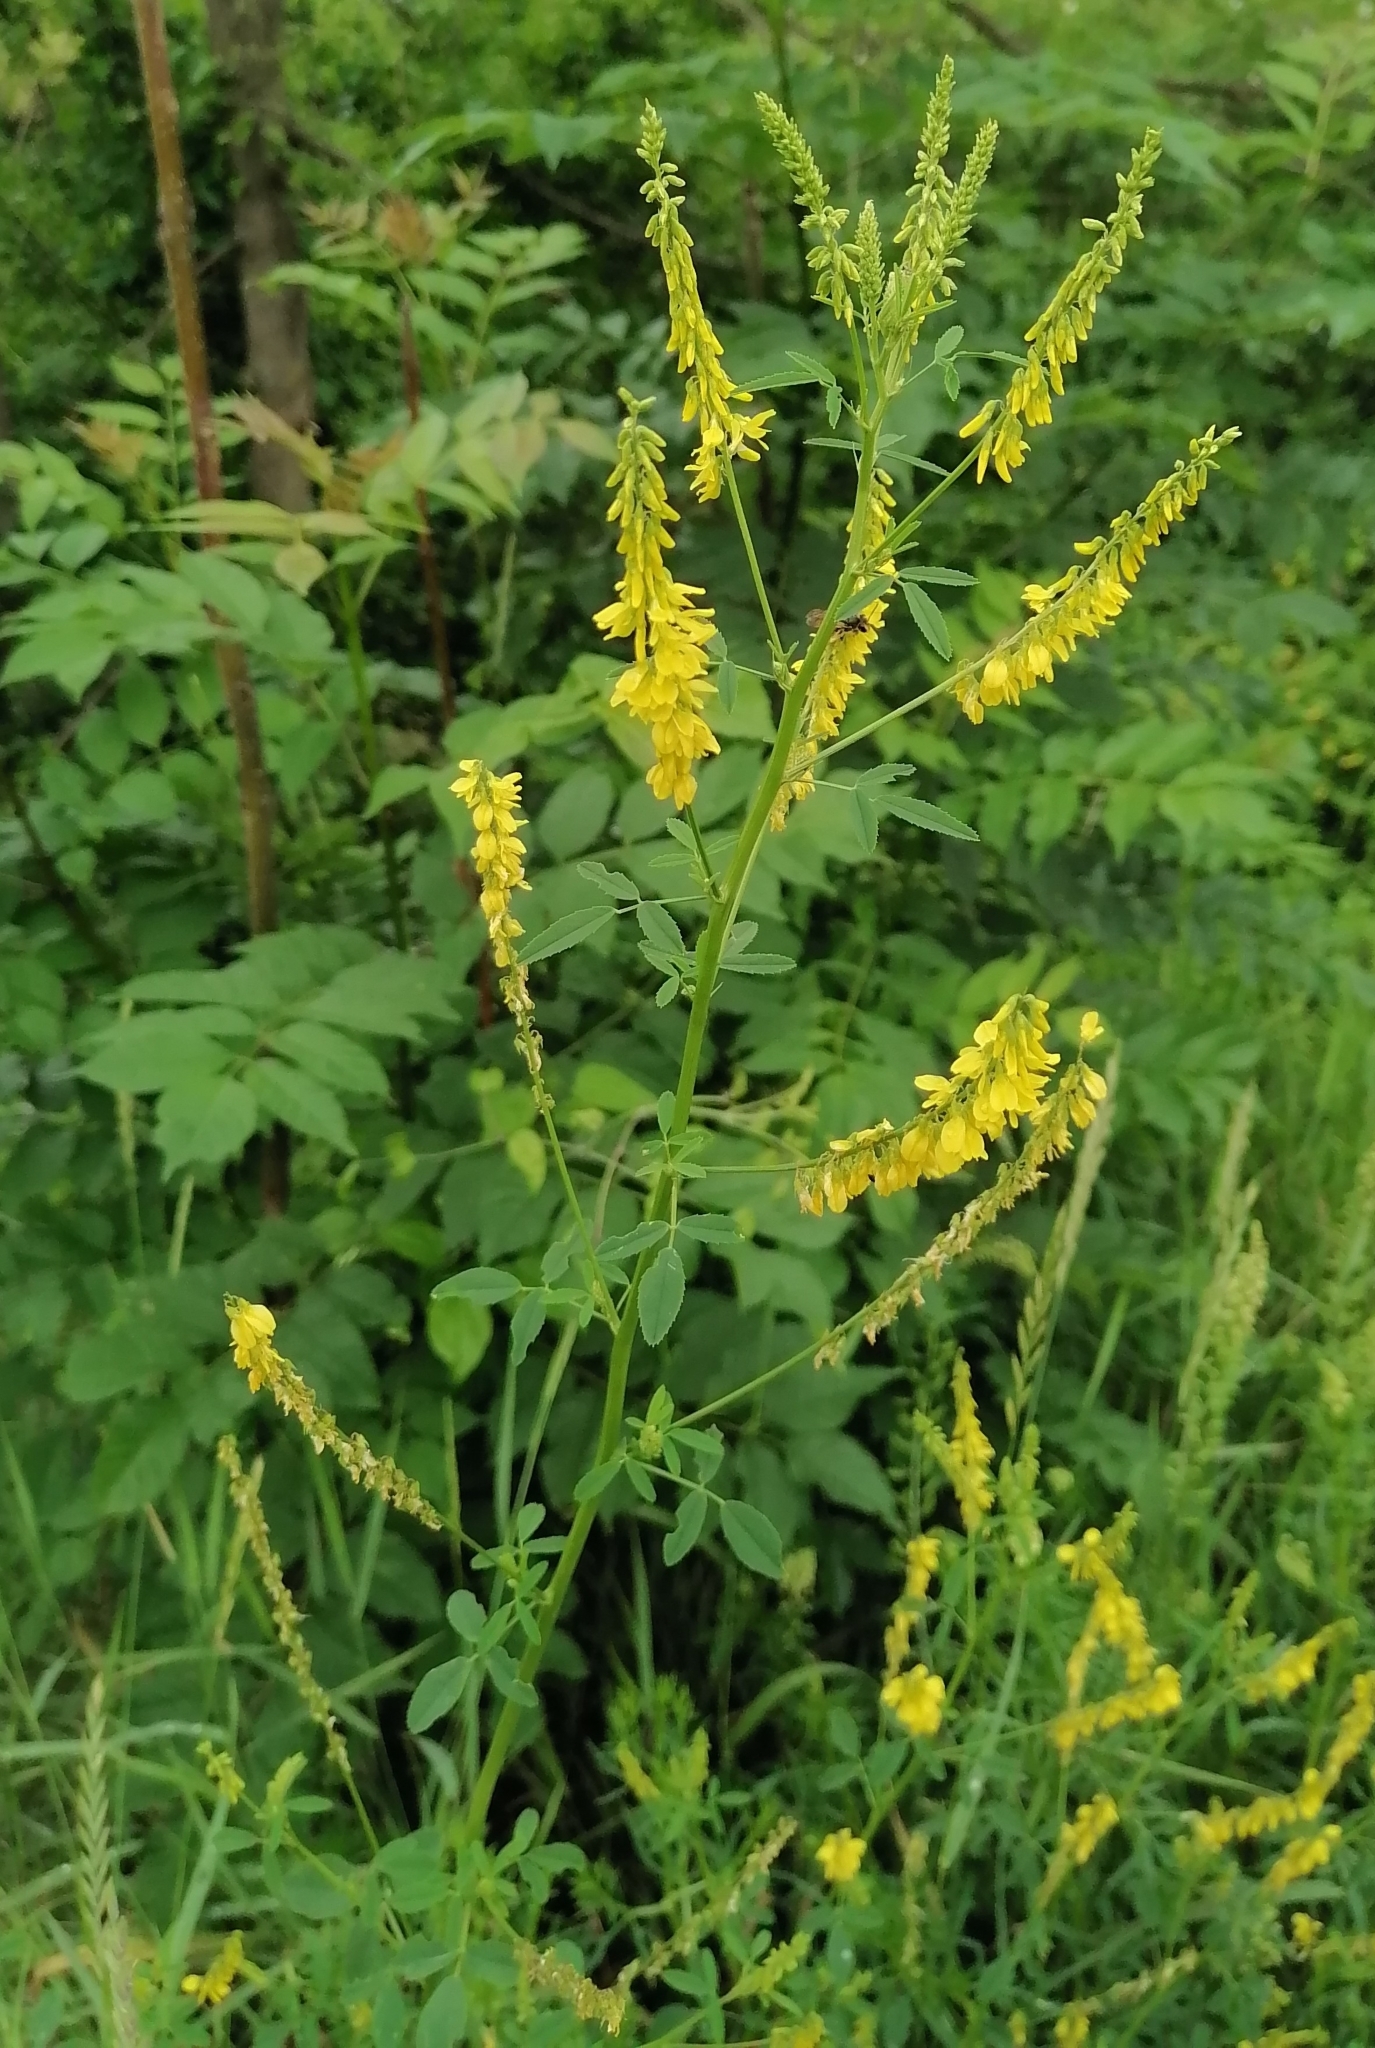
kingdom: Plantae
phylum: Tracheophyta
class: Magnoliopsida
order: Fabales
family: Fabaceae
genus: Melilotus
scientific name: Melilotus officinalis
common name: Sweetclover
